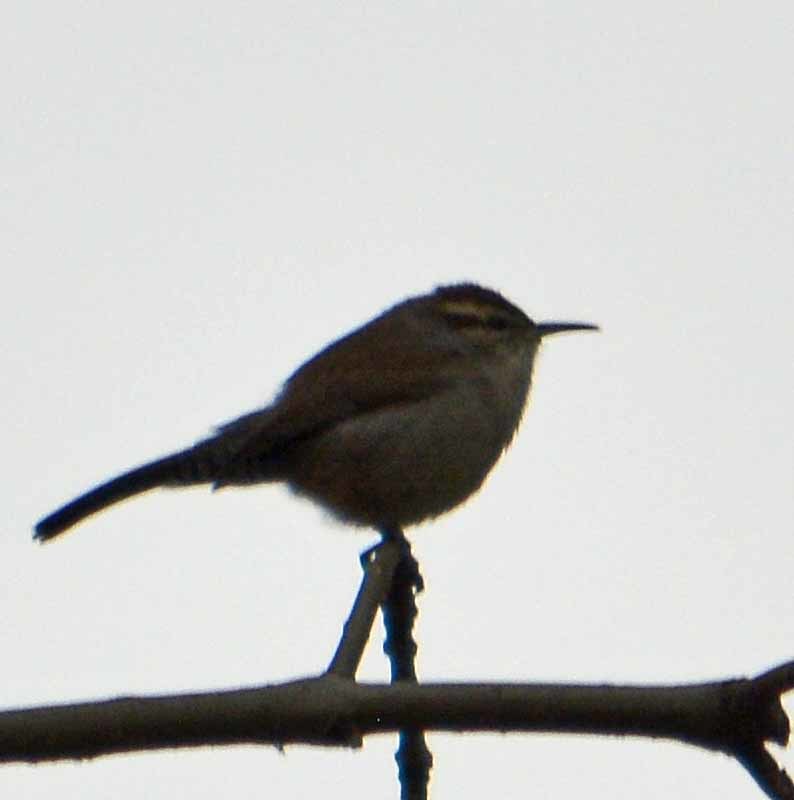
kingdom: Animalia
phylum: Chordata
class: Aves
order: Passeriformes
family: Troglodytidae
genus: Thryomanes
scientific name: Thryomanes bewickii
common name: Bewick's wren
